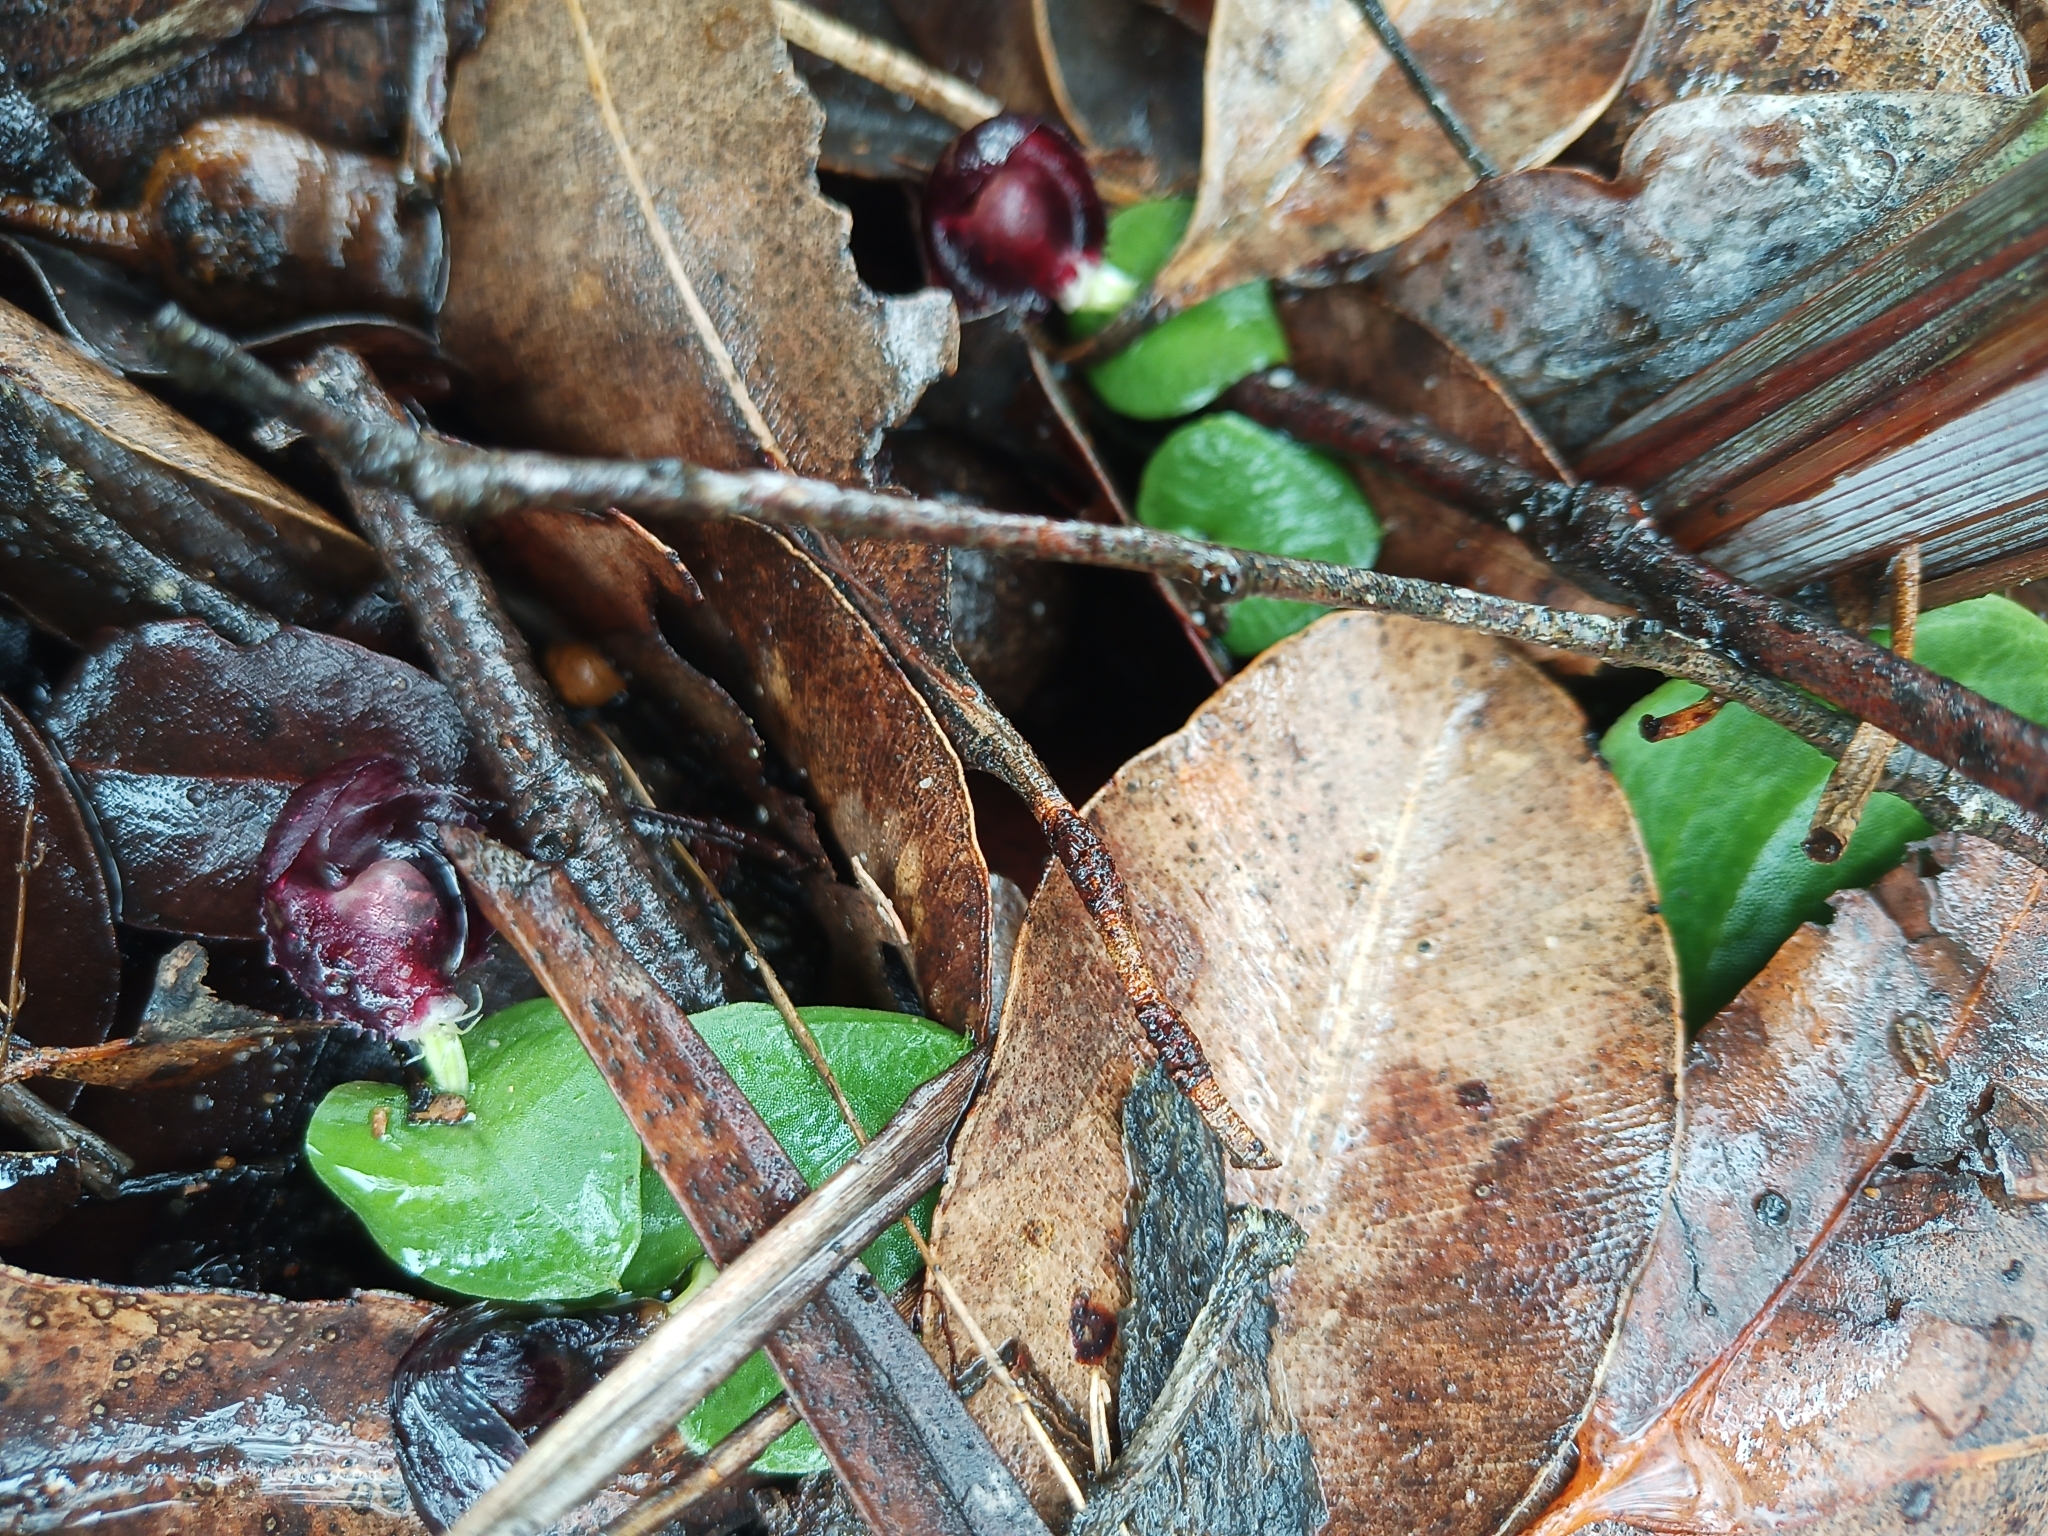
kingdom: Plantae
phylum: Tracheophyta
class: Liliopsida
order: Asparagales
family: Orchidaceae
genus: Corybas
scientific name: Corybas recurvus
